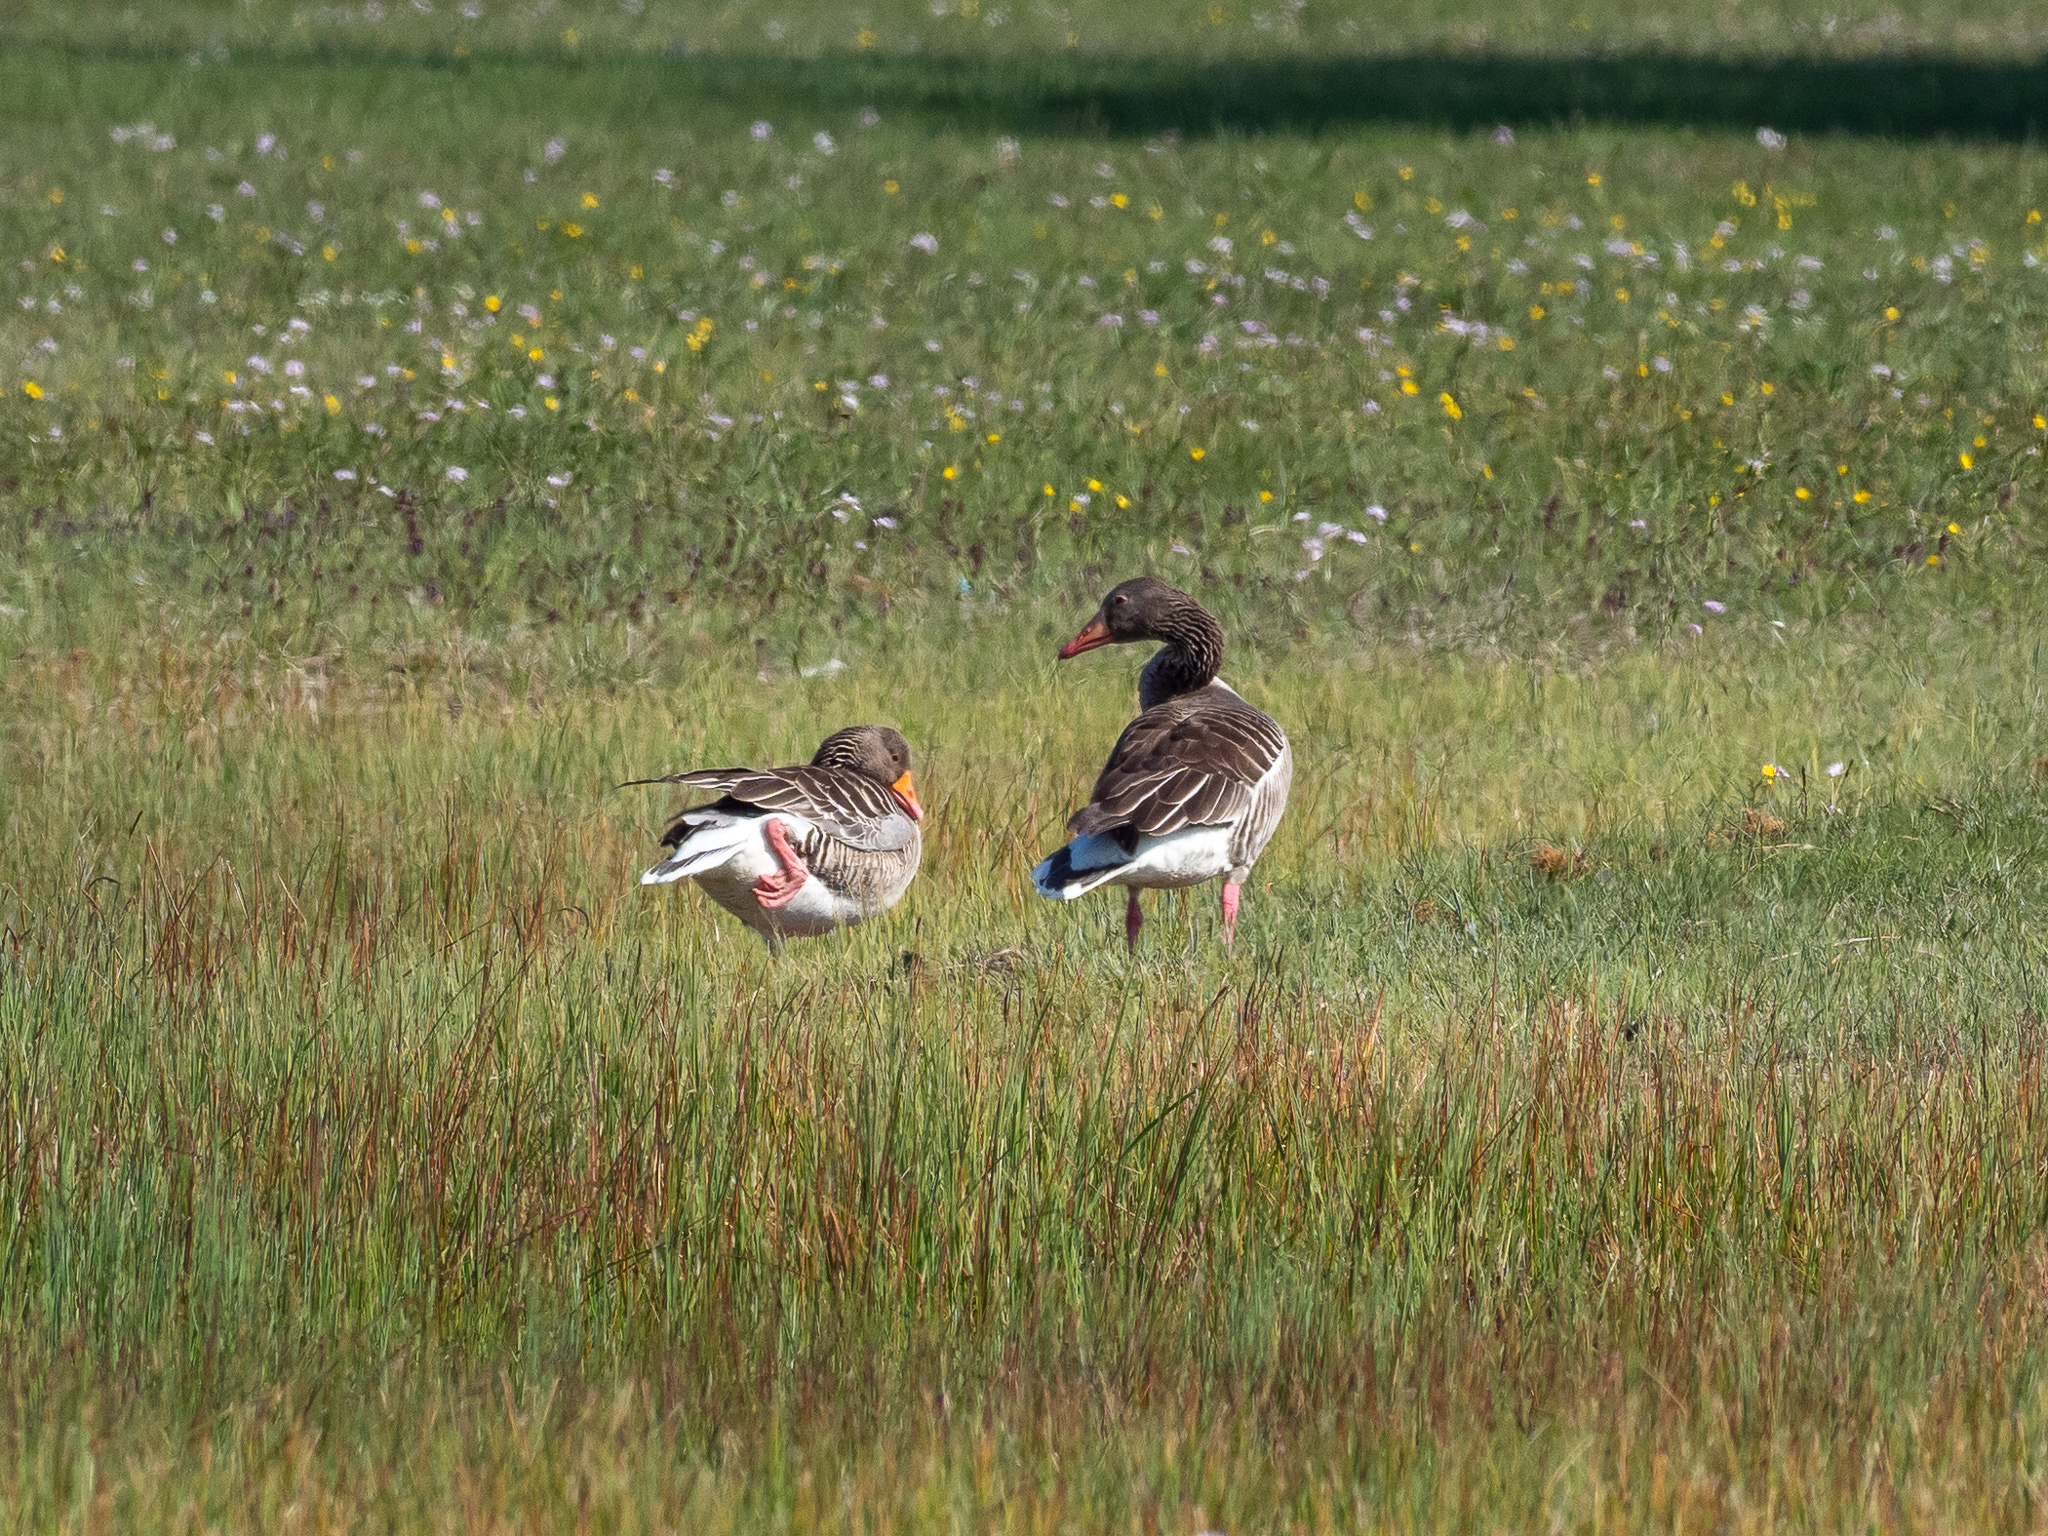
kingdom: Animalia
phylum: Chordata
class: Aves
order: Anseriformes
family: Anatidae
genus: Anser
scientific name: Anser anser
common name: Greylag goose
